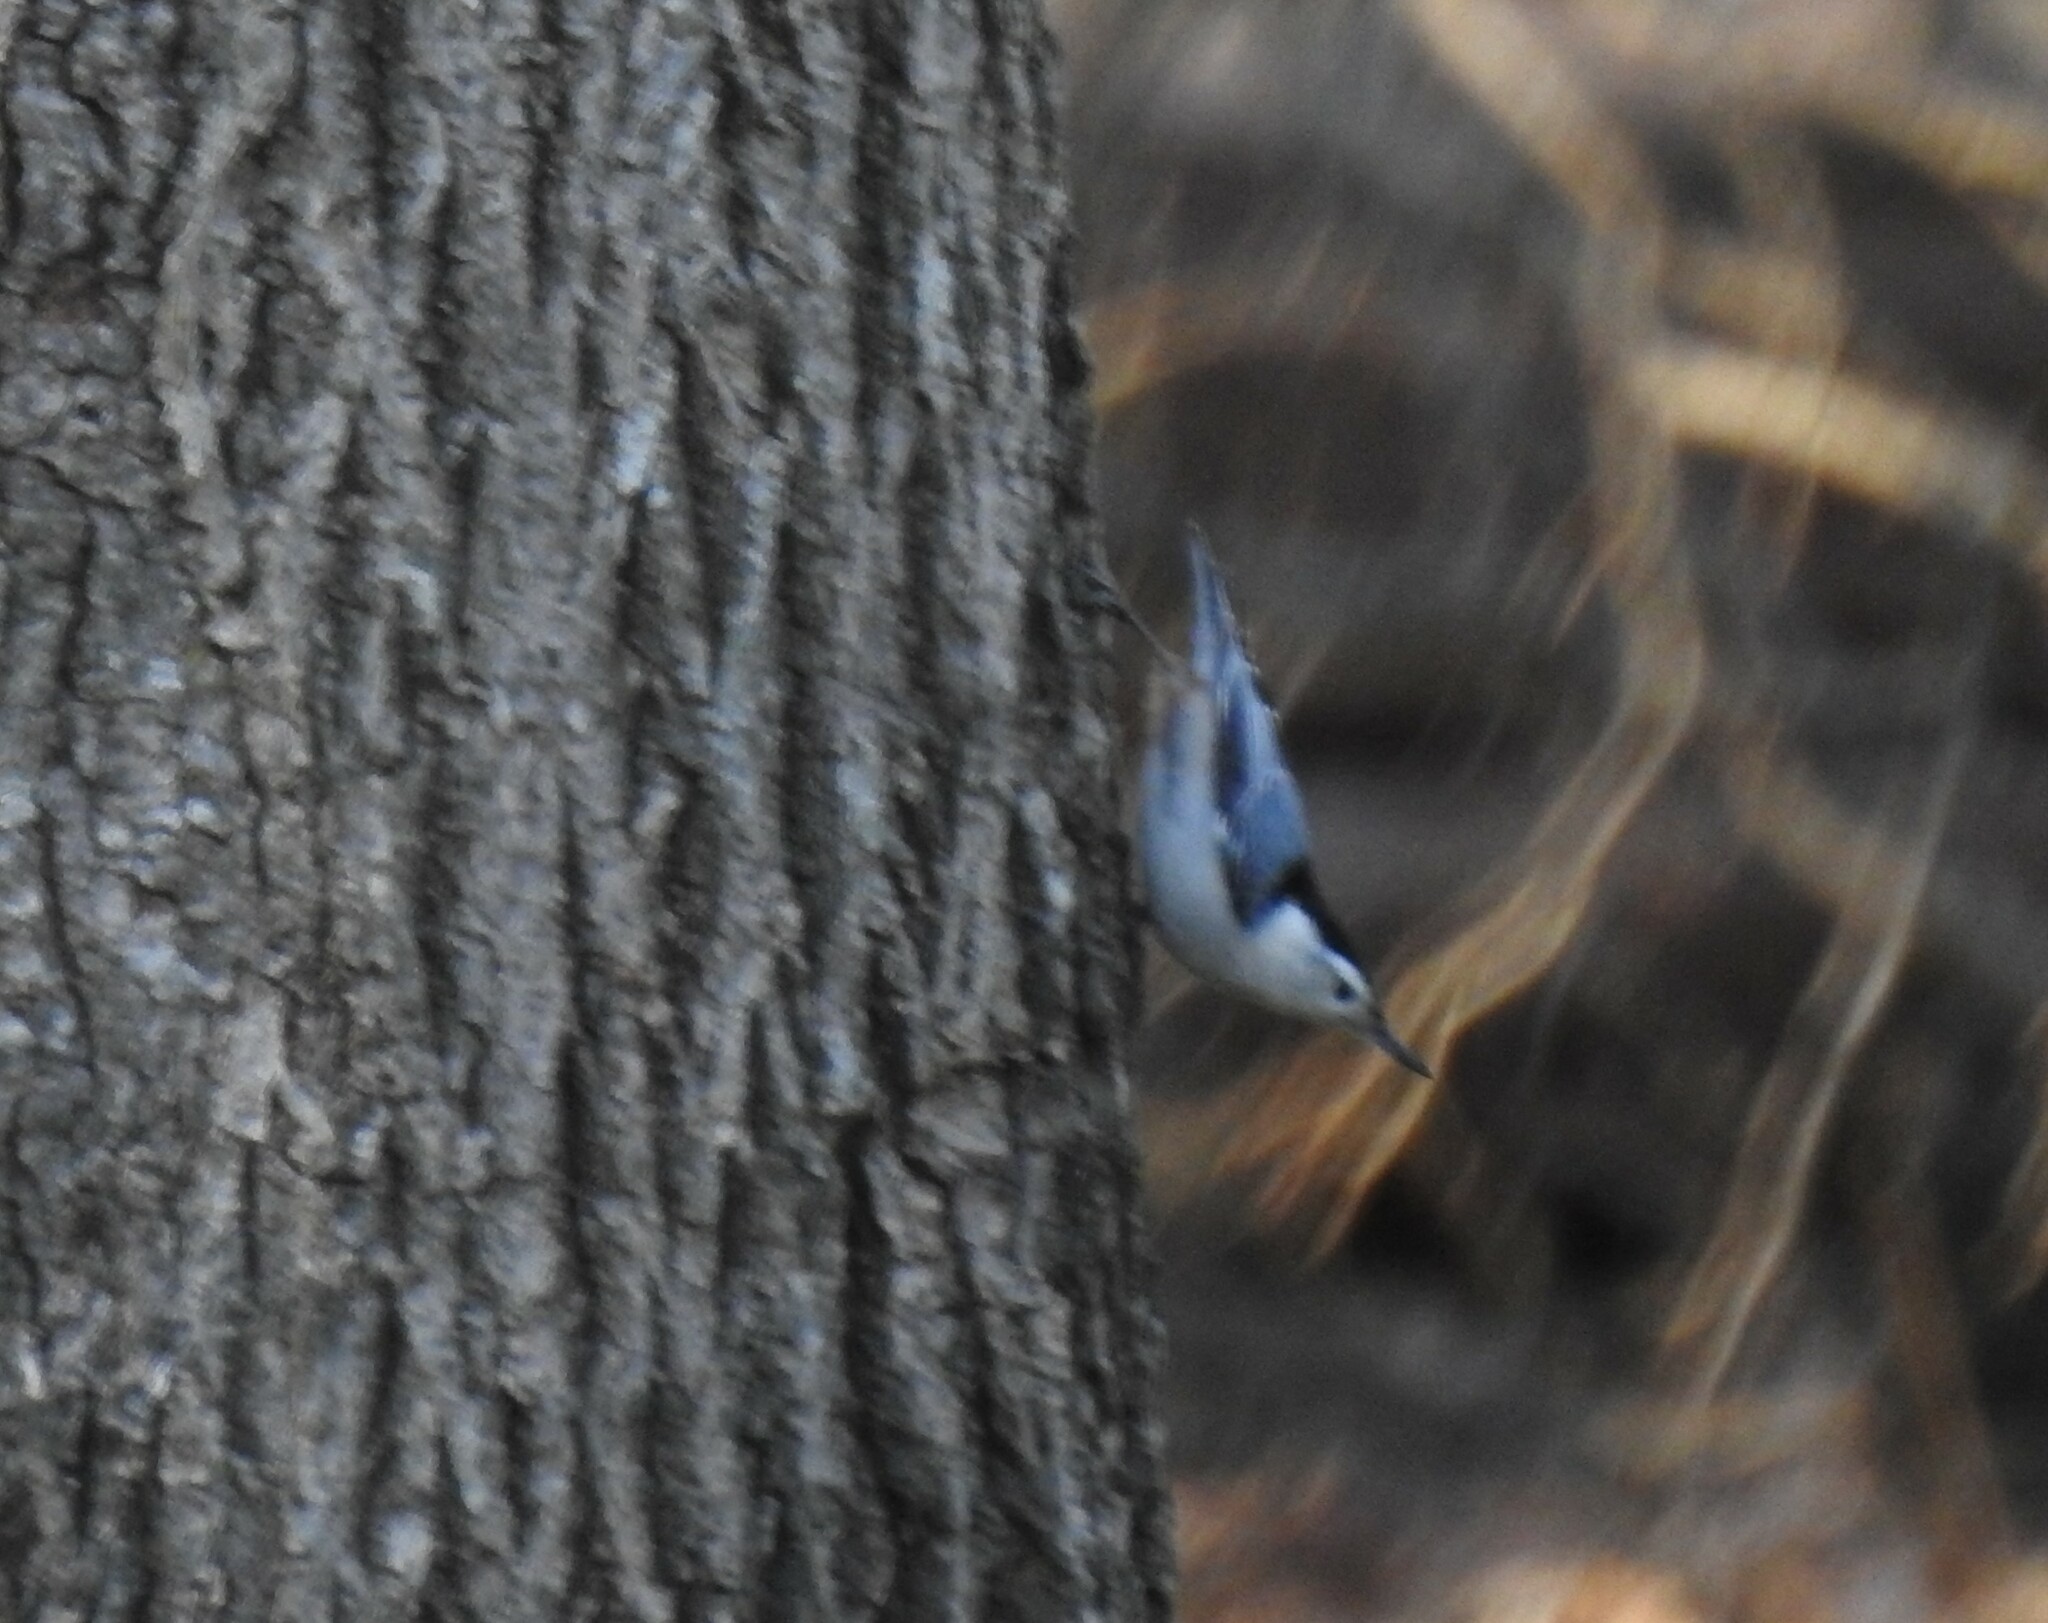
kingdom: Animalia
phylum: Chordata
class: Aves
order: Passeriformes
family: Sittidae
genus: Sitta
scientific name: Sitta carolinensis
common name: White-breasted nuthatch
